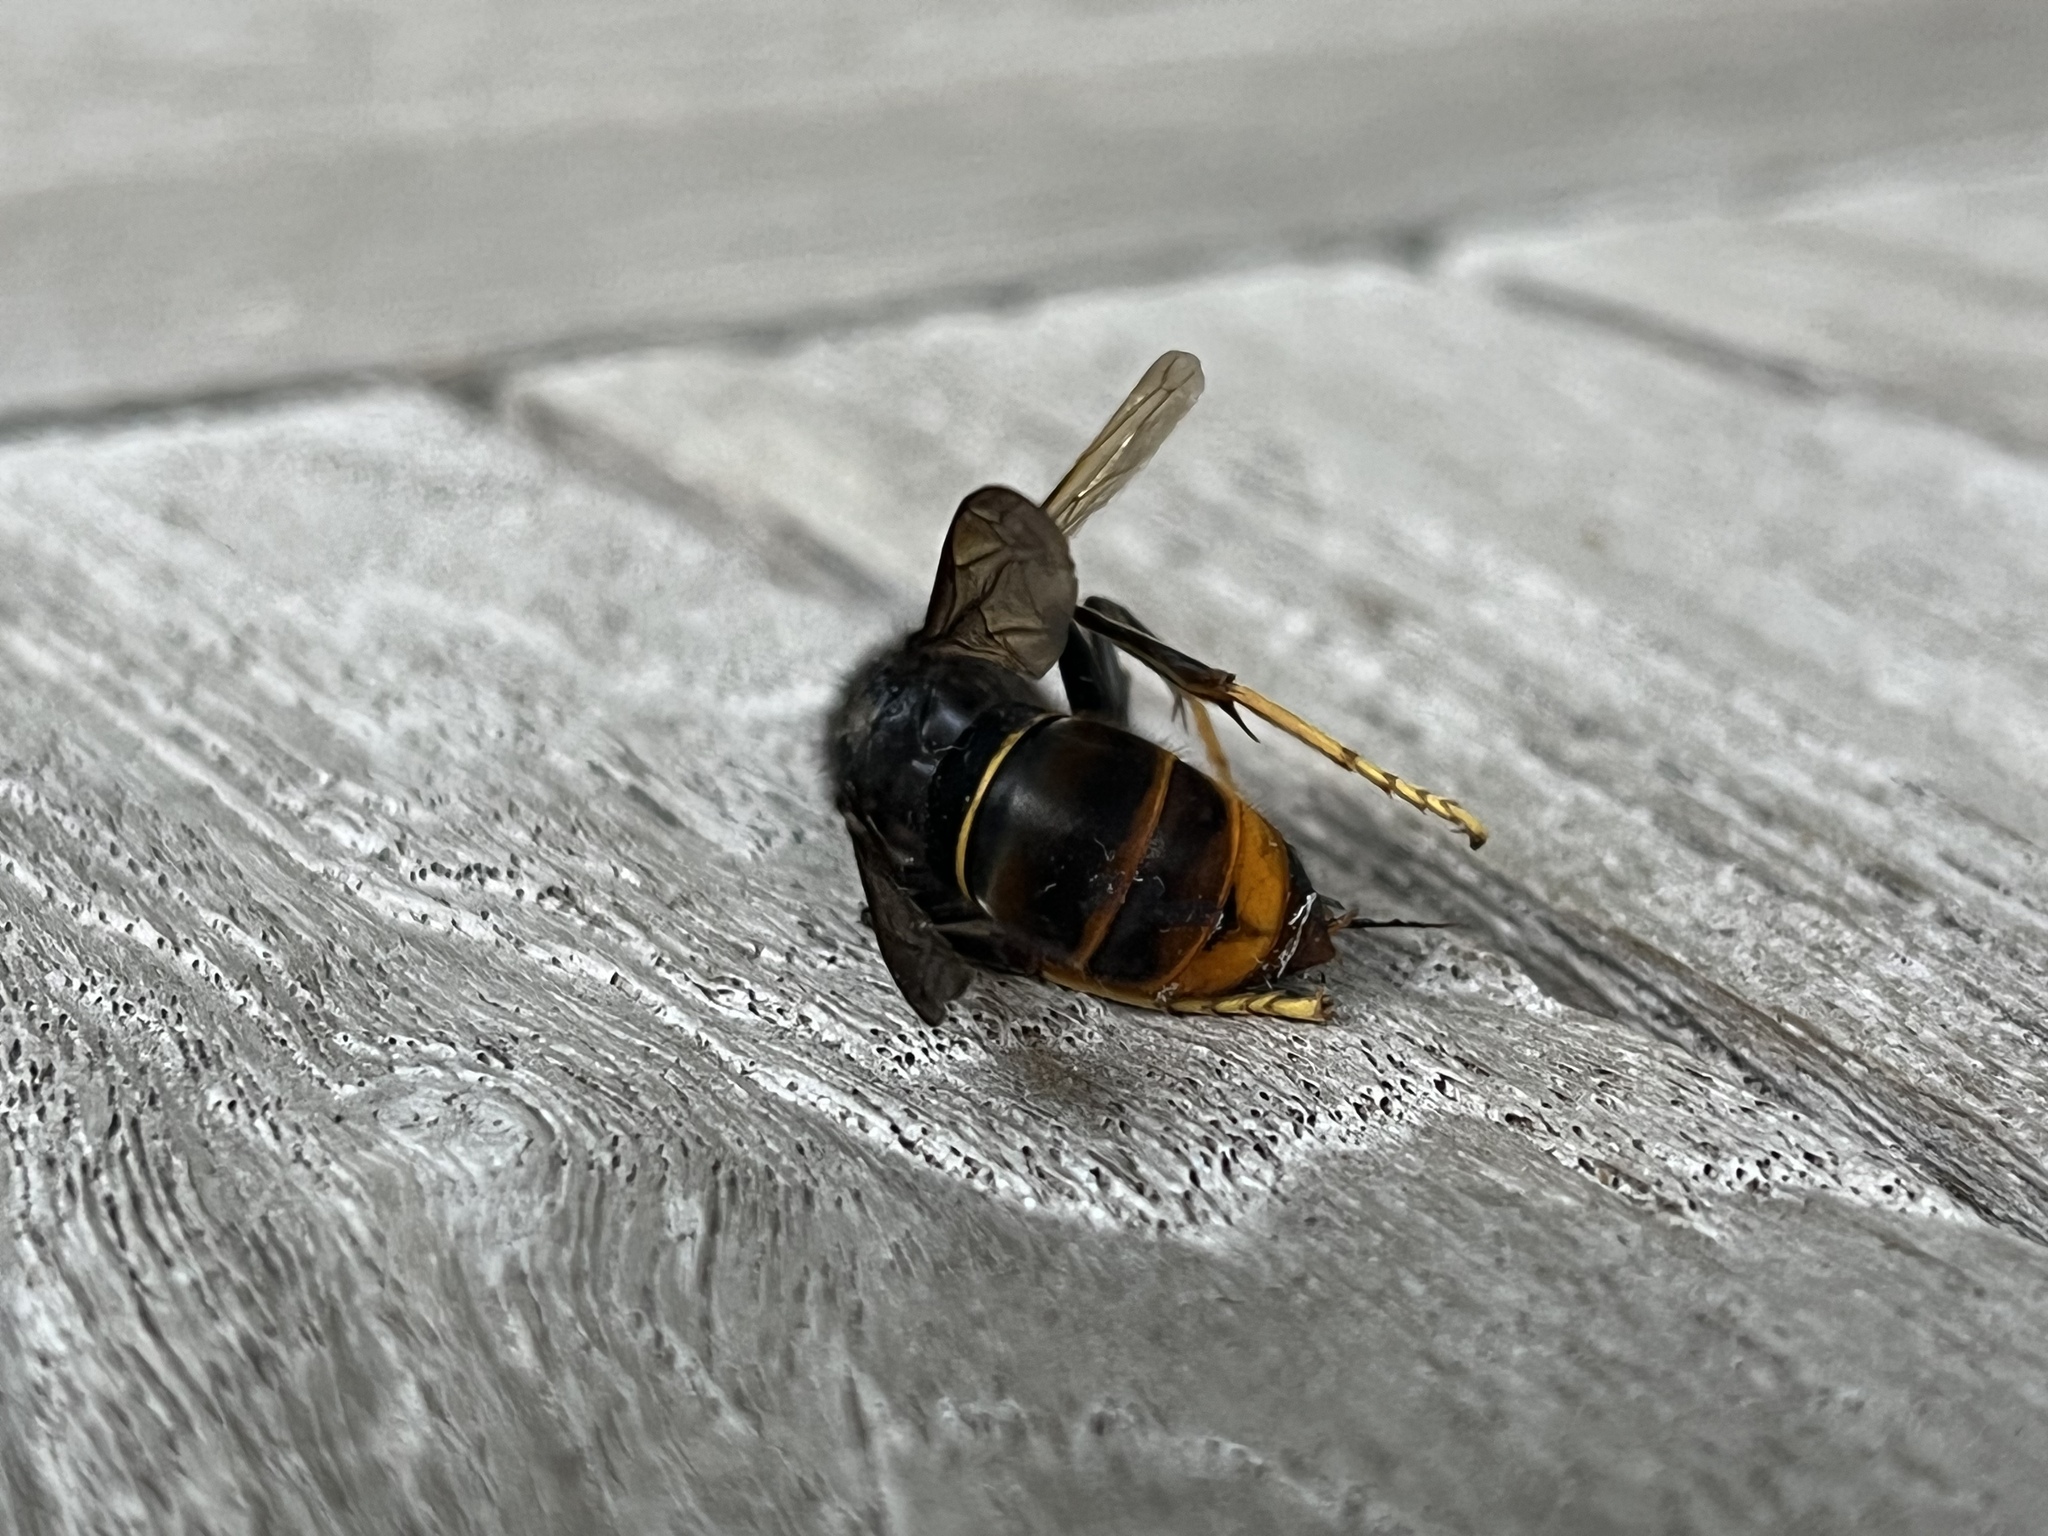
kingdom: Animalia
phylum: Arthropoda
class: Insecta
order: Hymenoptera
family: Vespidae
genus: Vespa
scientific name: Vespa velutina
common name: Asian hornet
